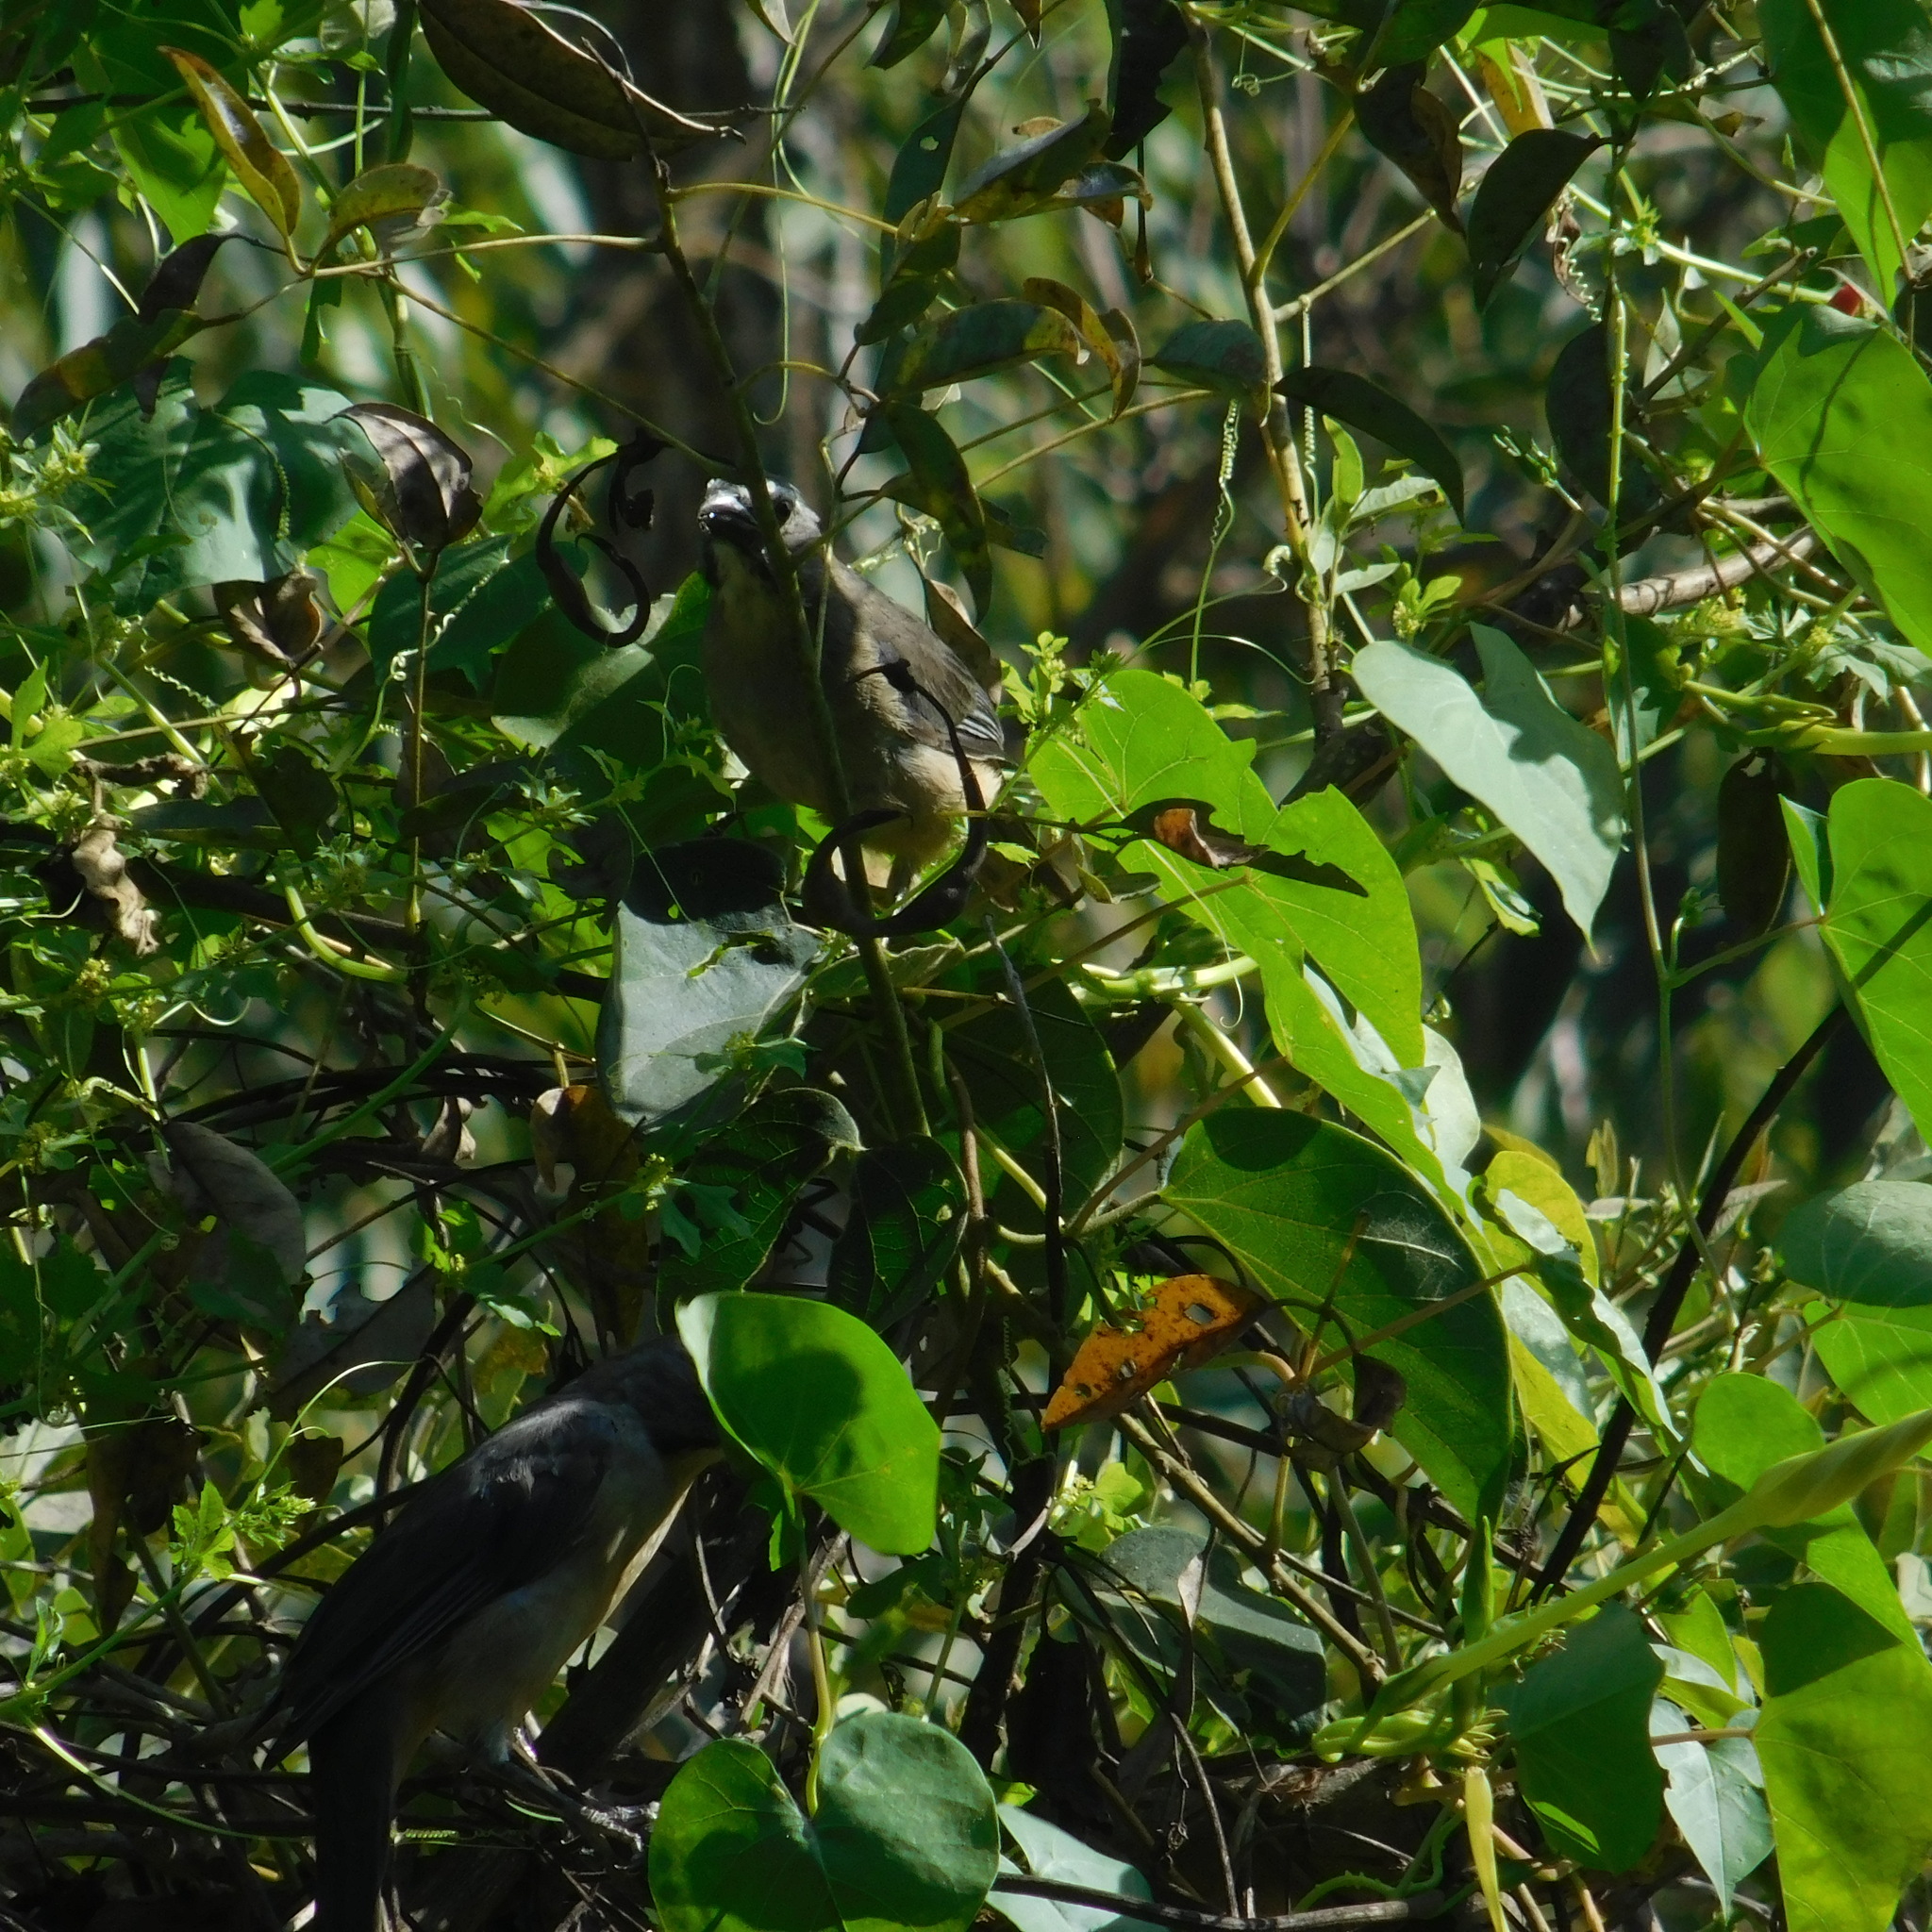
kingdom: Animalia
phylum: Chordata
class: Aves
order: Passeriformes
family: Thraupidae
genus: Saltator
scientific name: Saltator similis
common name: Green-winged saltator
